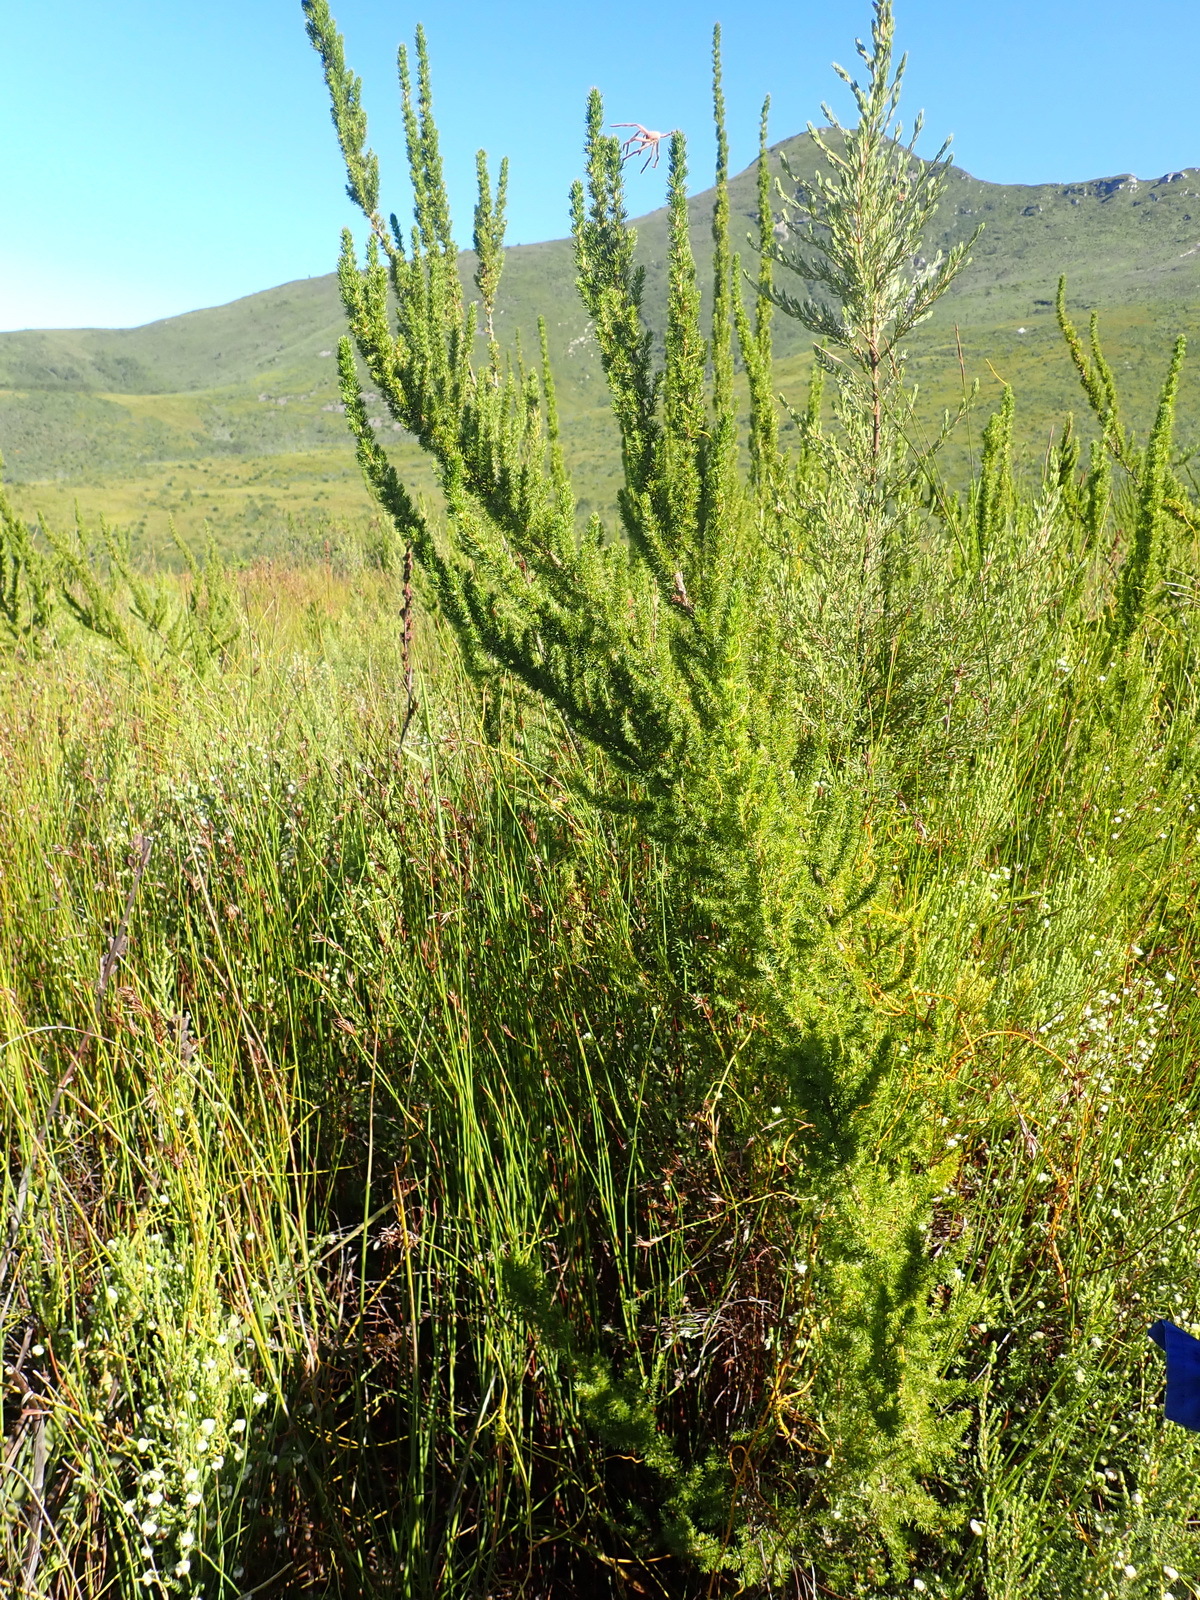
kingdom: Animalia
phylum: Arthropoda
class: Arachnida
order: Araneae
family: Sparassidae
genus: Palystes
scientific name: Palystes superciliosus
